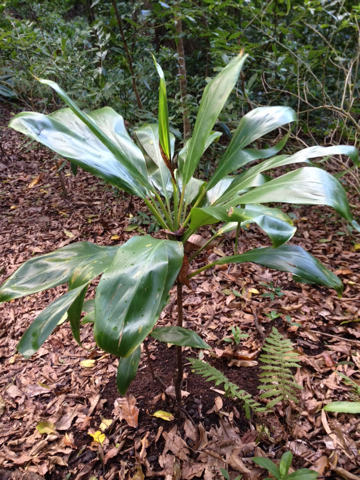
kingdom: Plantae
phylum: Tracheophyta
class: Liliopsida
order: Asparagales
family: Asparagaceae
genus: Cordyline
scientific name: Cordyline fruticosa
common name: Good-luck-plant
